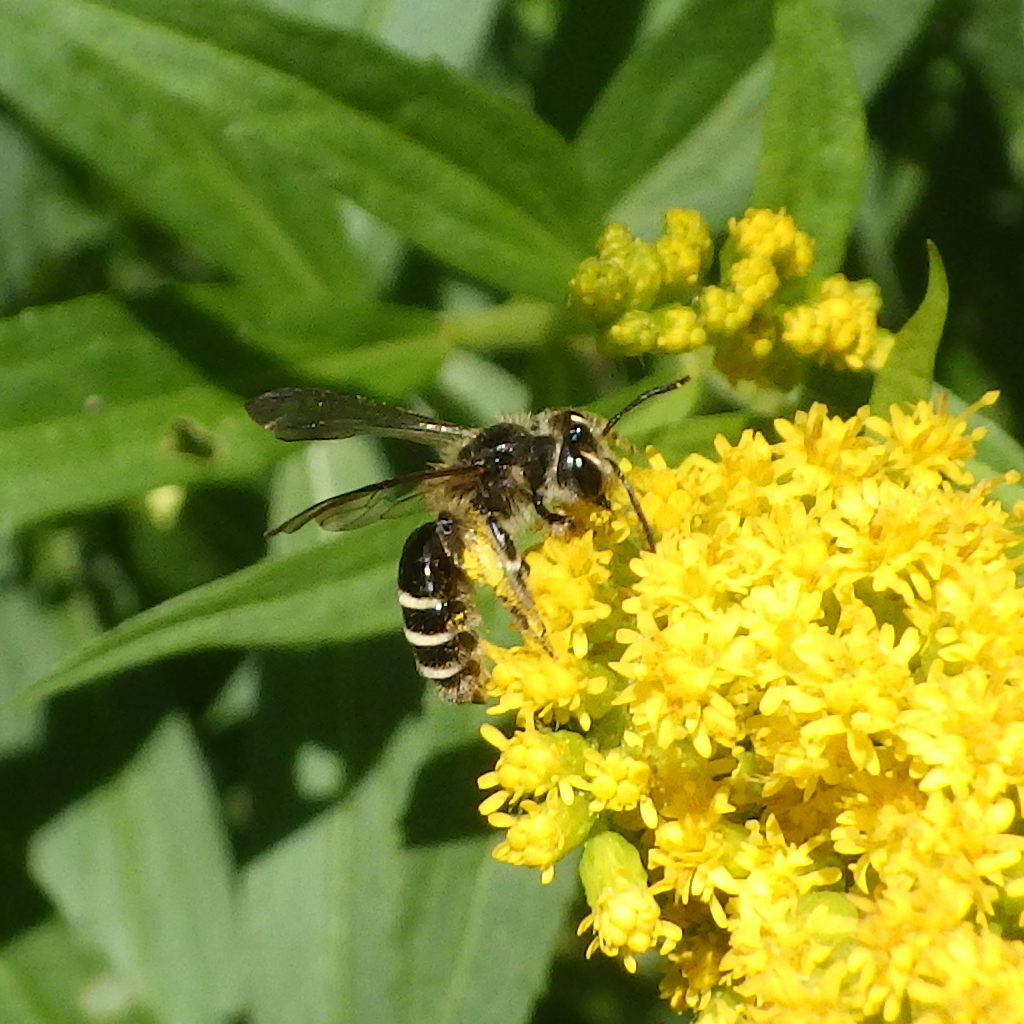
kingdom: Animalia
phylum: Arthropoda
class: Insecta
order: Hymenoptera
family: Andrenidae
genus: Andrena
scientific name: Andrena nubecula
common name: Cloudy-winged mining bee
